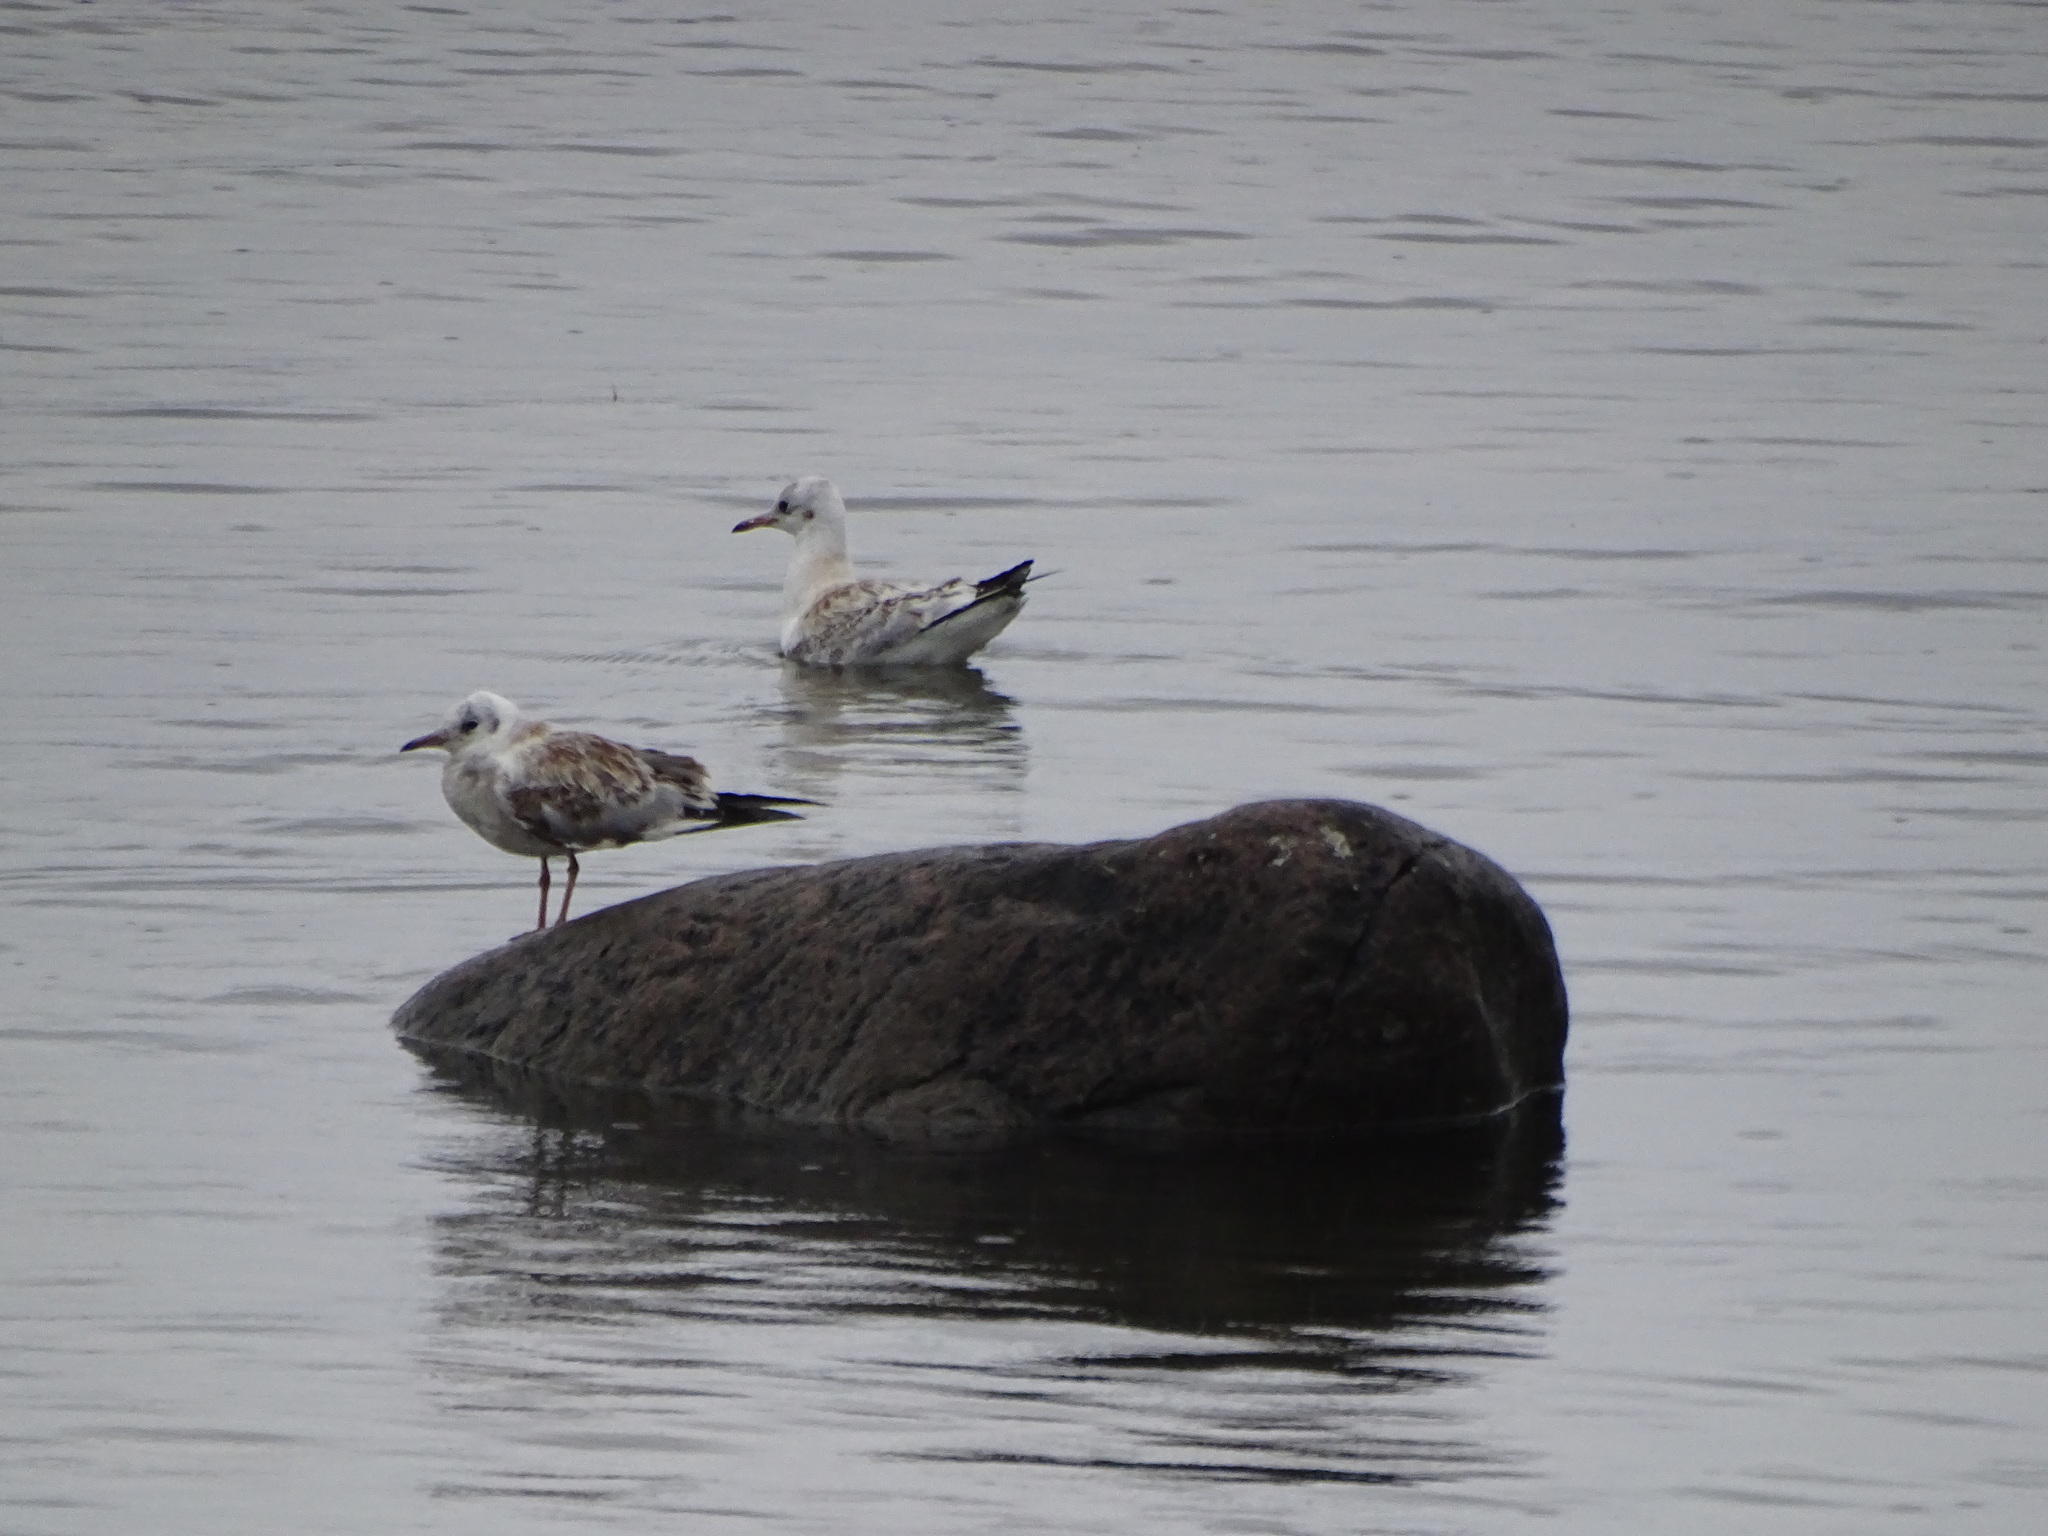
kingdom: Animalia
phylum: Chordata
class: Aves
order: Charadriiformes
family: Laridae
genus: Chroicocephalus
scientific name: Chroicocephalus ridibundus
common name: Black-headed gull
